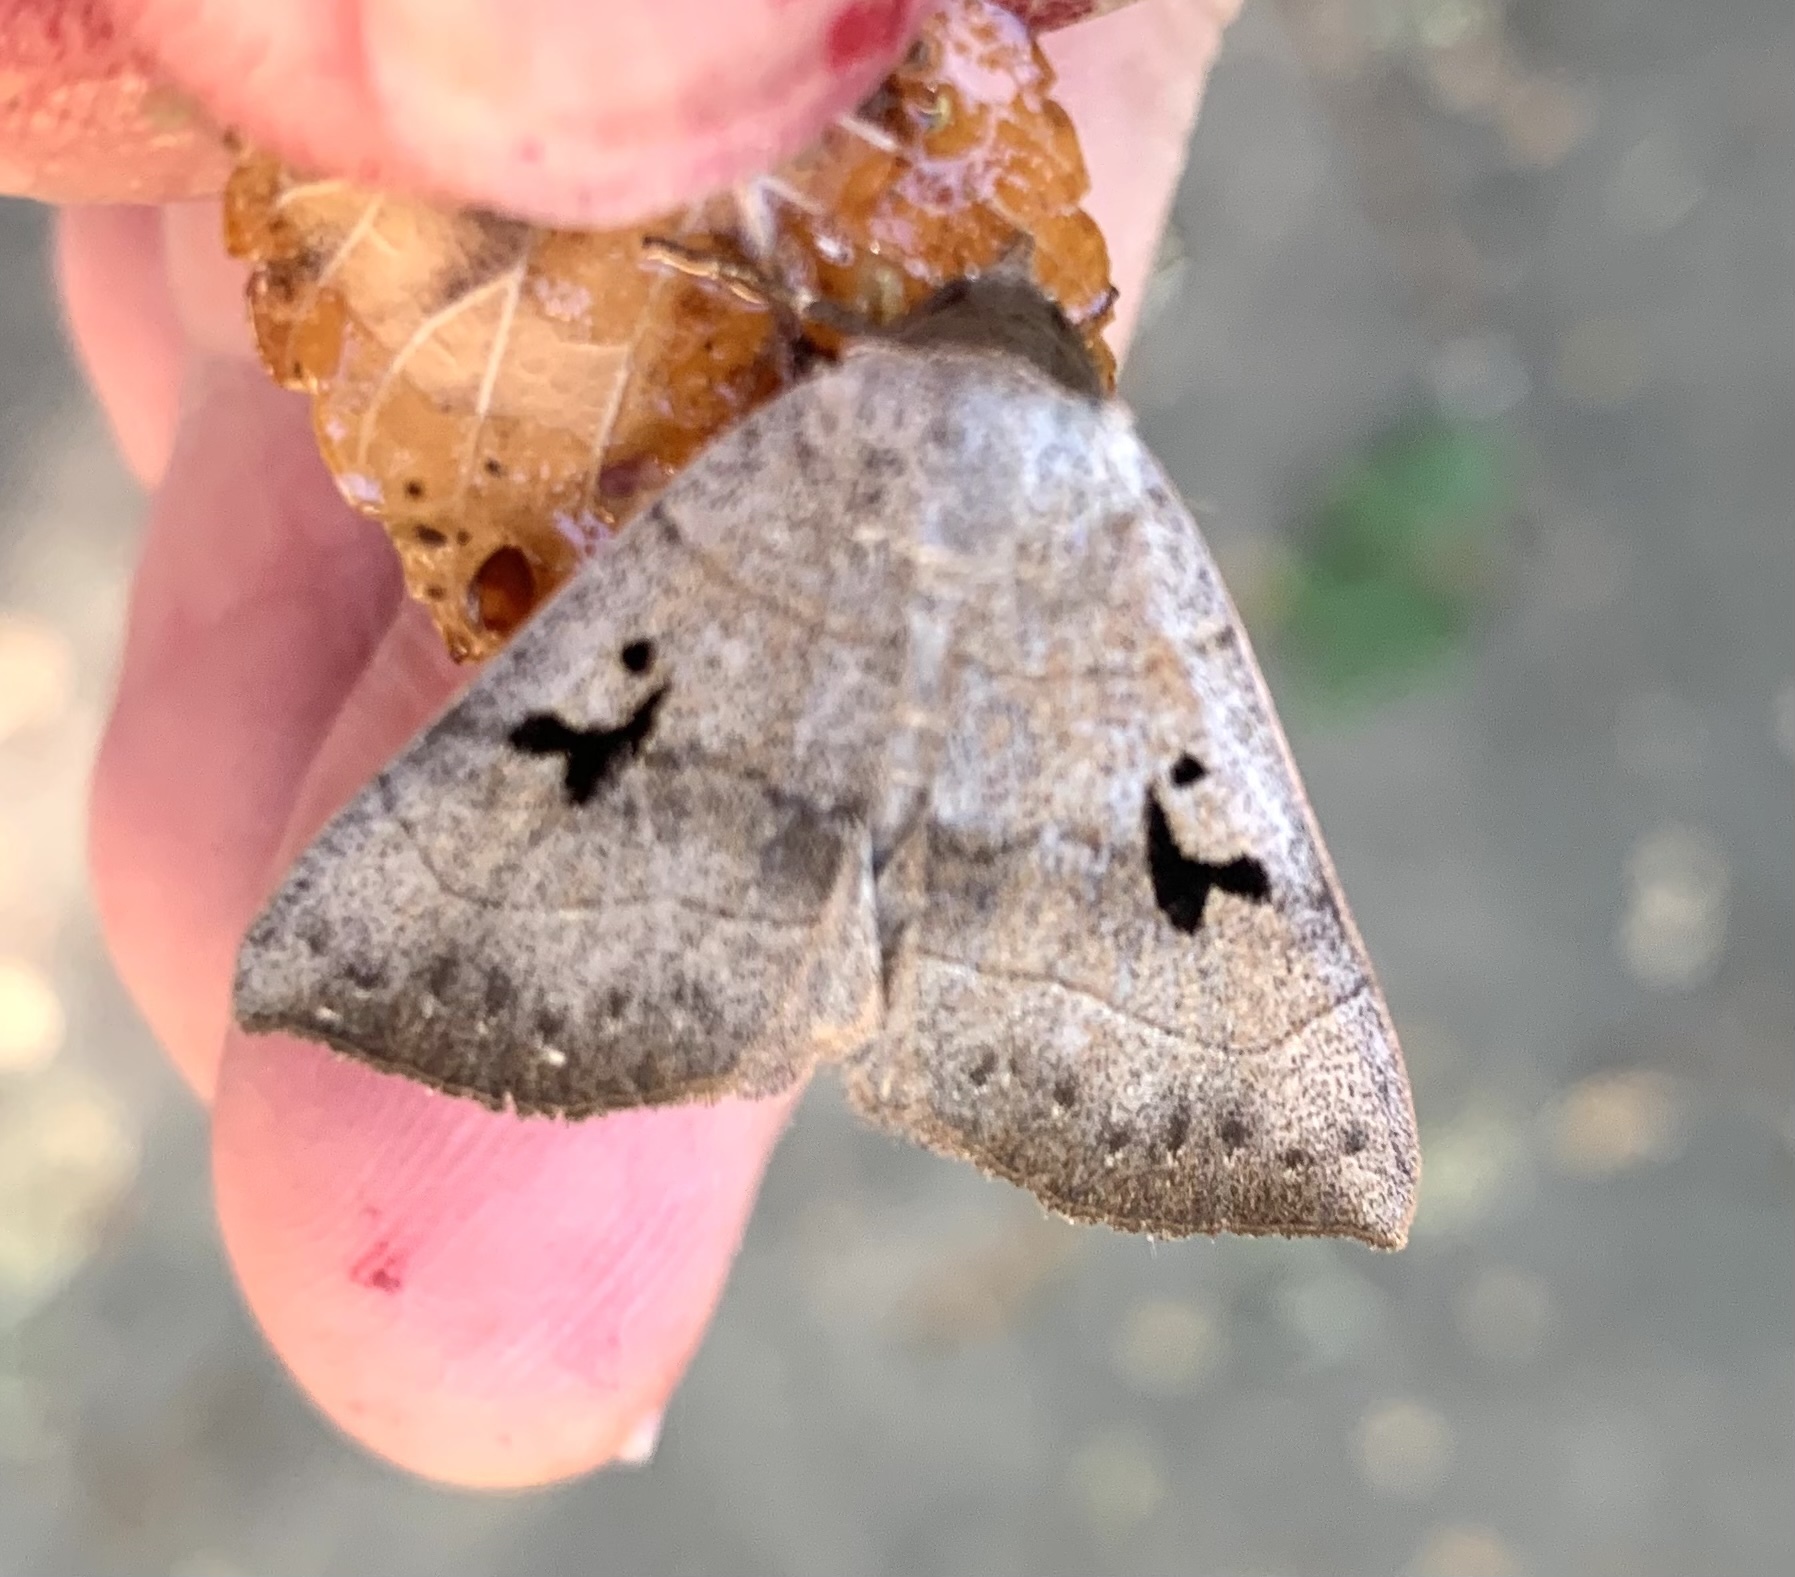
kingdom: Animalia
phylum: Arthropoda
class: Insecta
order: Lepidoptera
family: Erebidae
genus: Panopoda
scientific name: Panopoda carneicosta
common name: Brown panopoda moth
